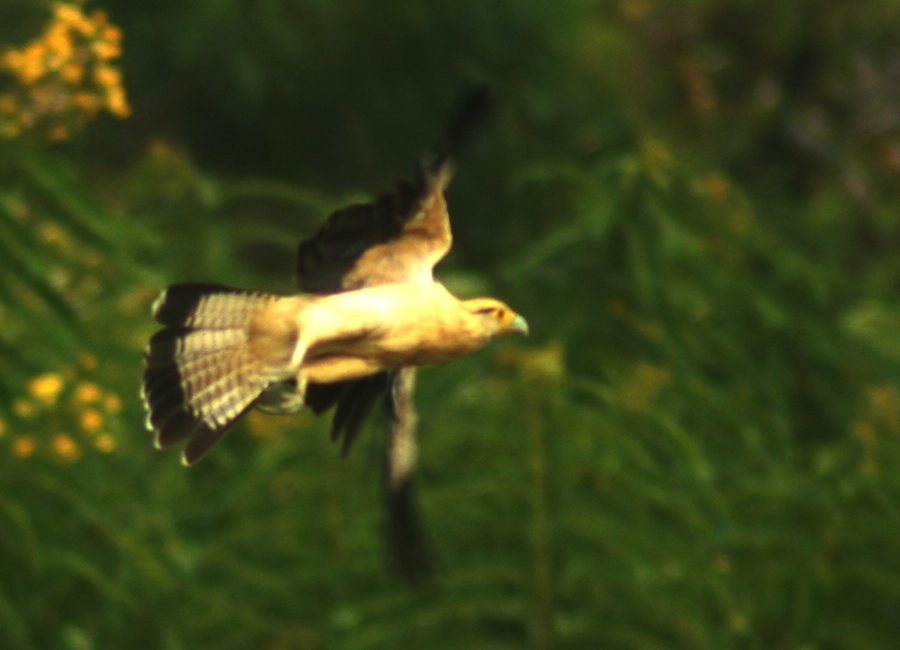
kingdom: Animalia
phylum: Chordata
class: Aves
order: Falconiformes
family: Falconidae
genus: Daptrius
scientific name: Daptrius
